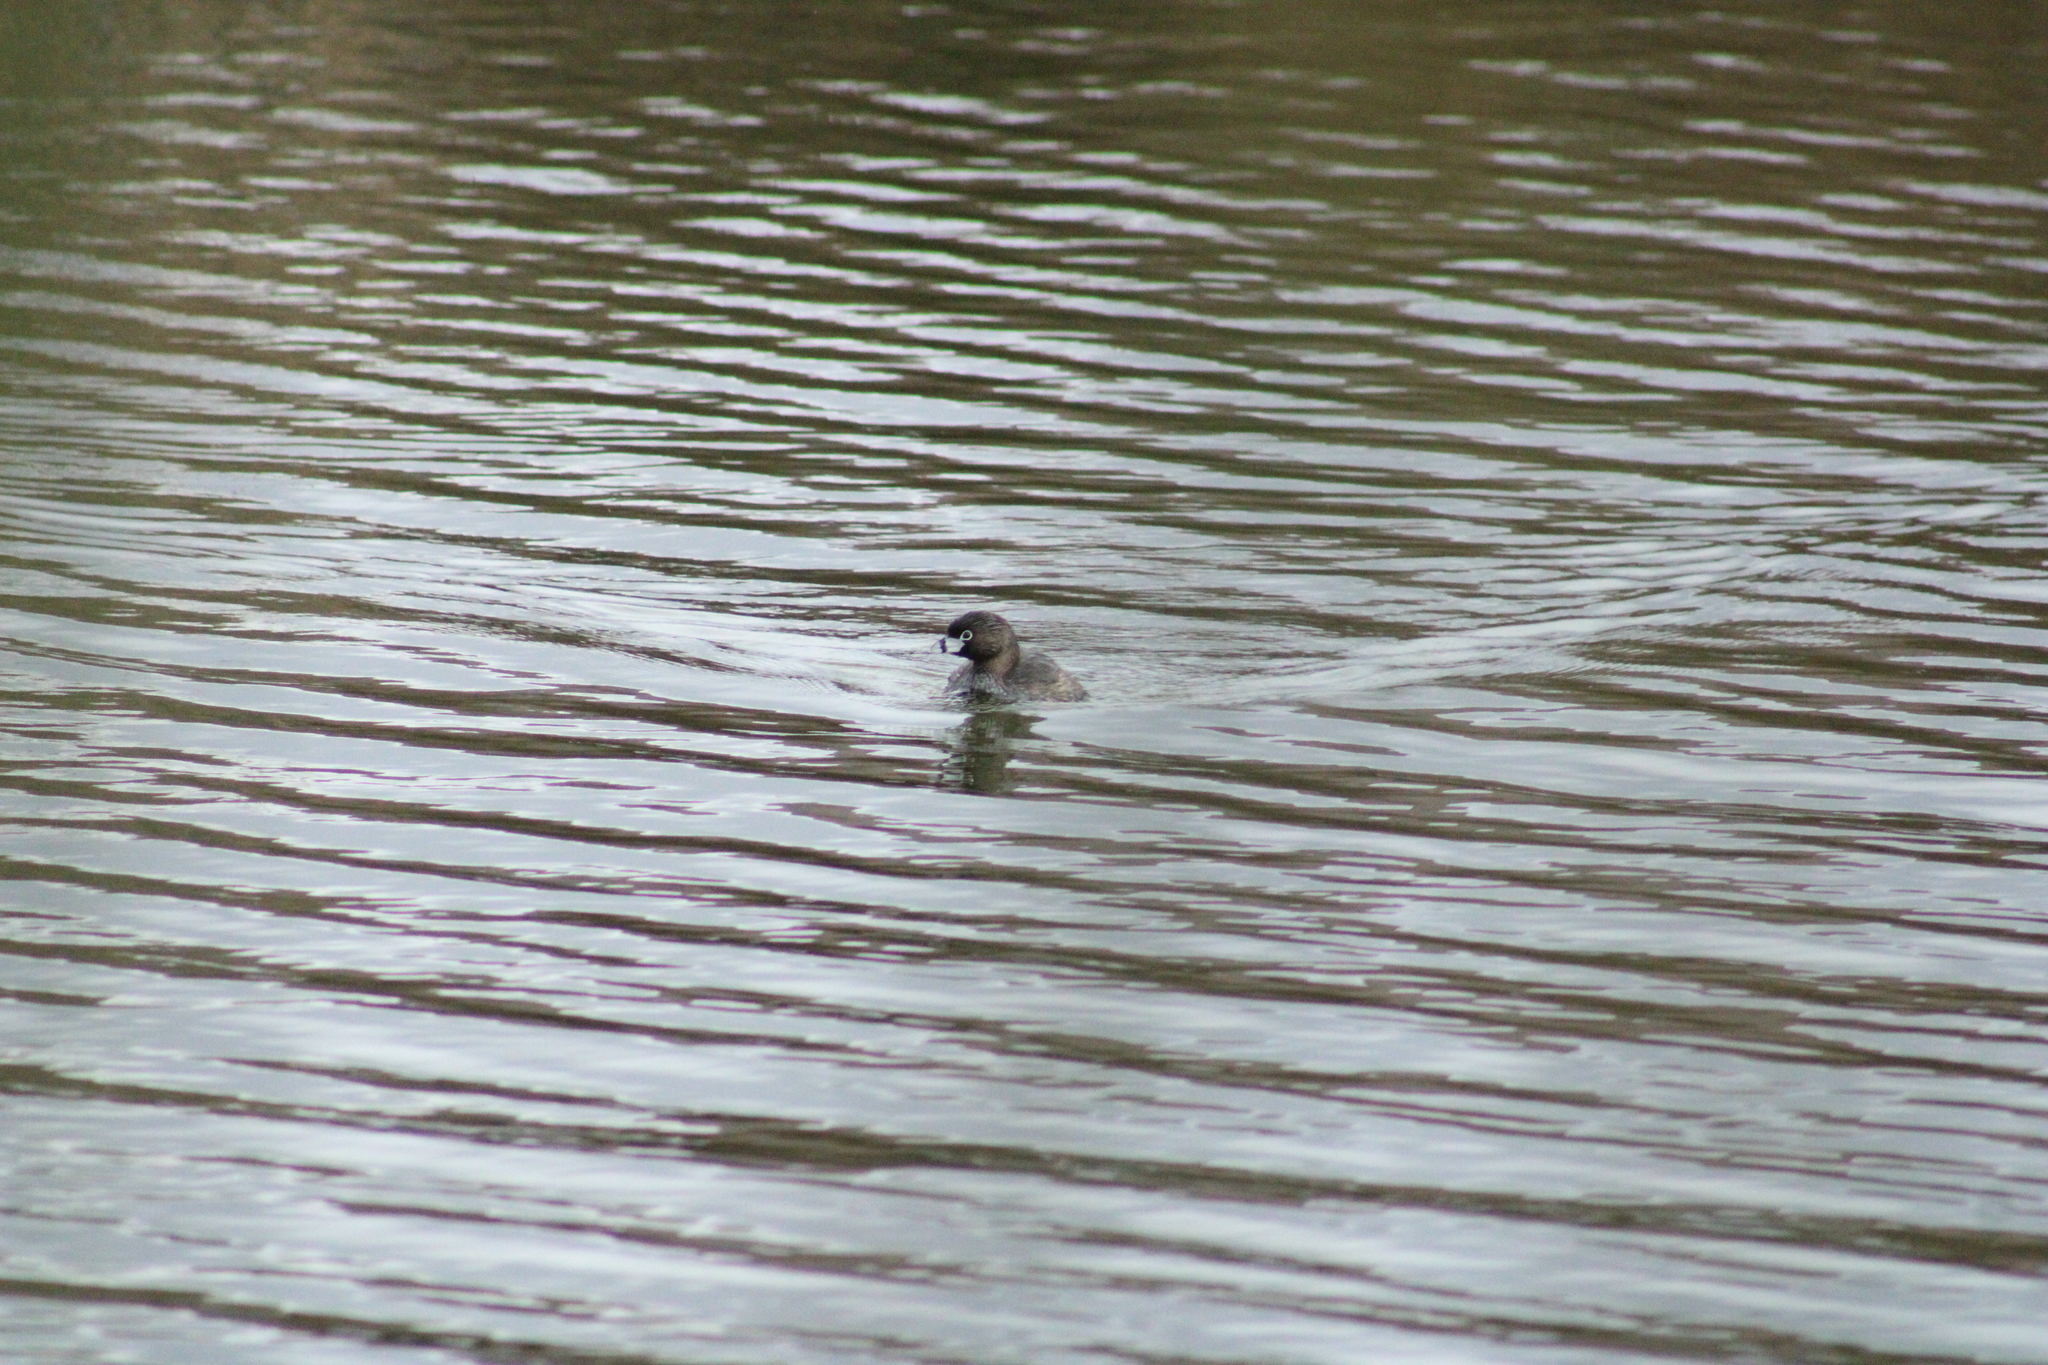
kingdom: Animalia
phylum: Chordata
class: Aves
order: Podicipediformes
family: Podicipedidae
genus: Podilymbus
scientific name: Podilymbus podiceps
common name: Pied-billed grebe
